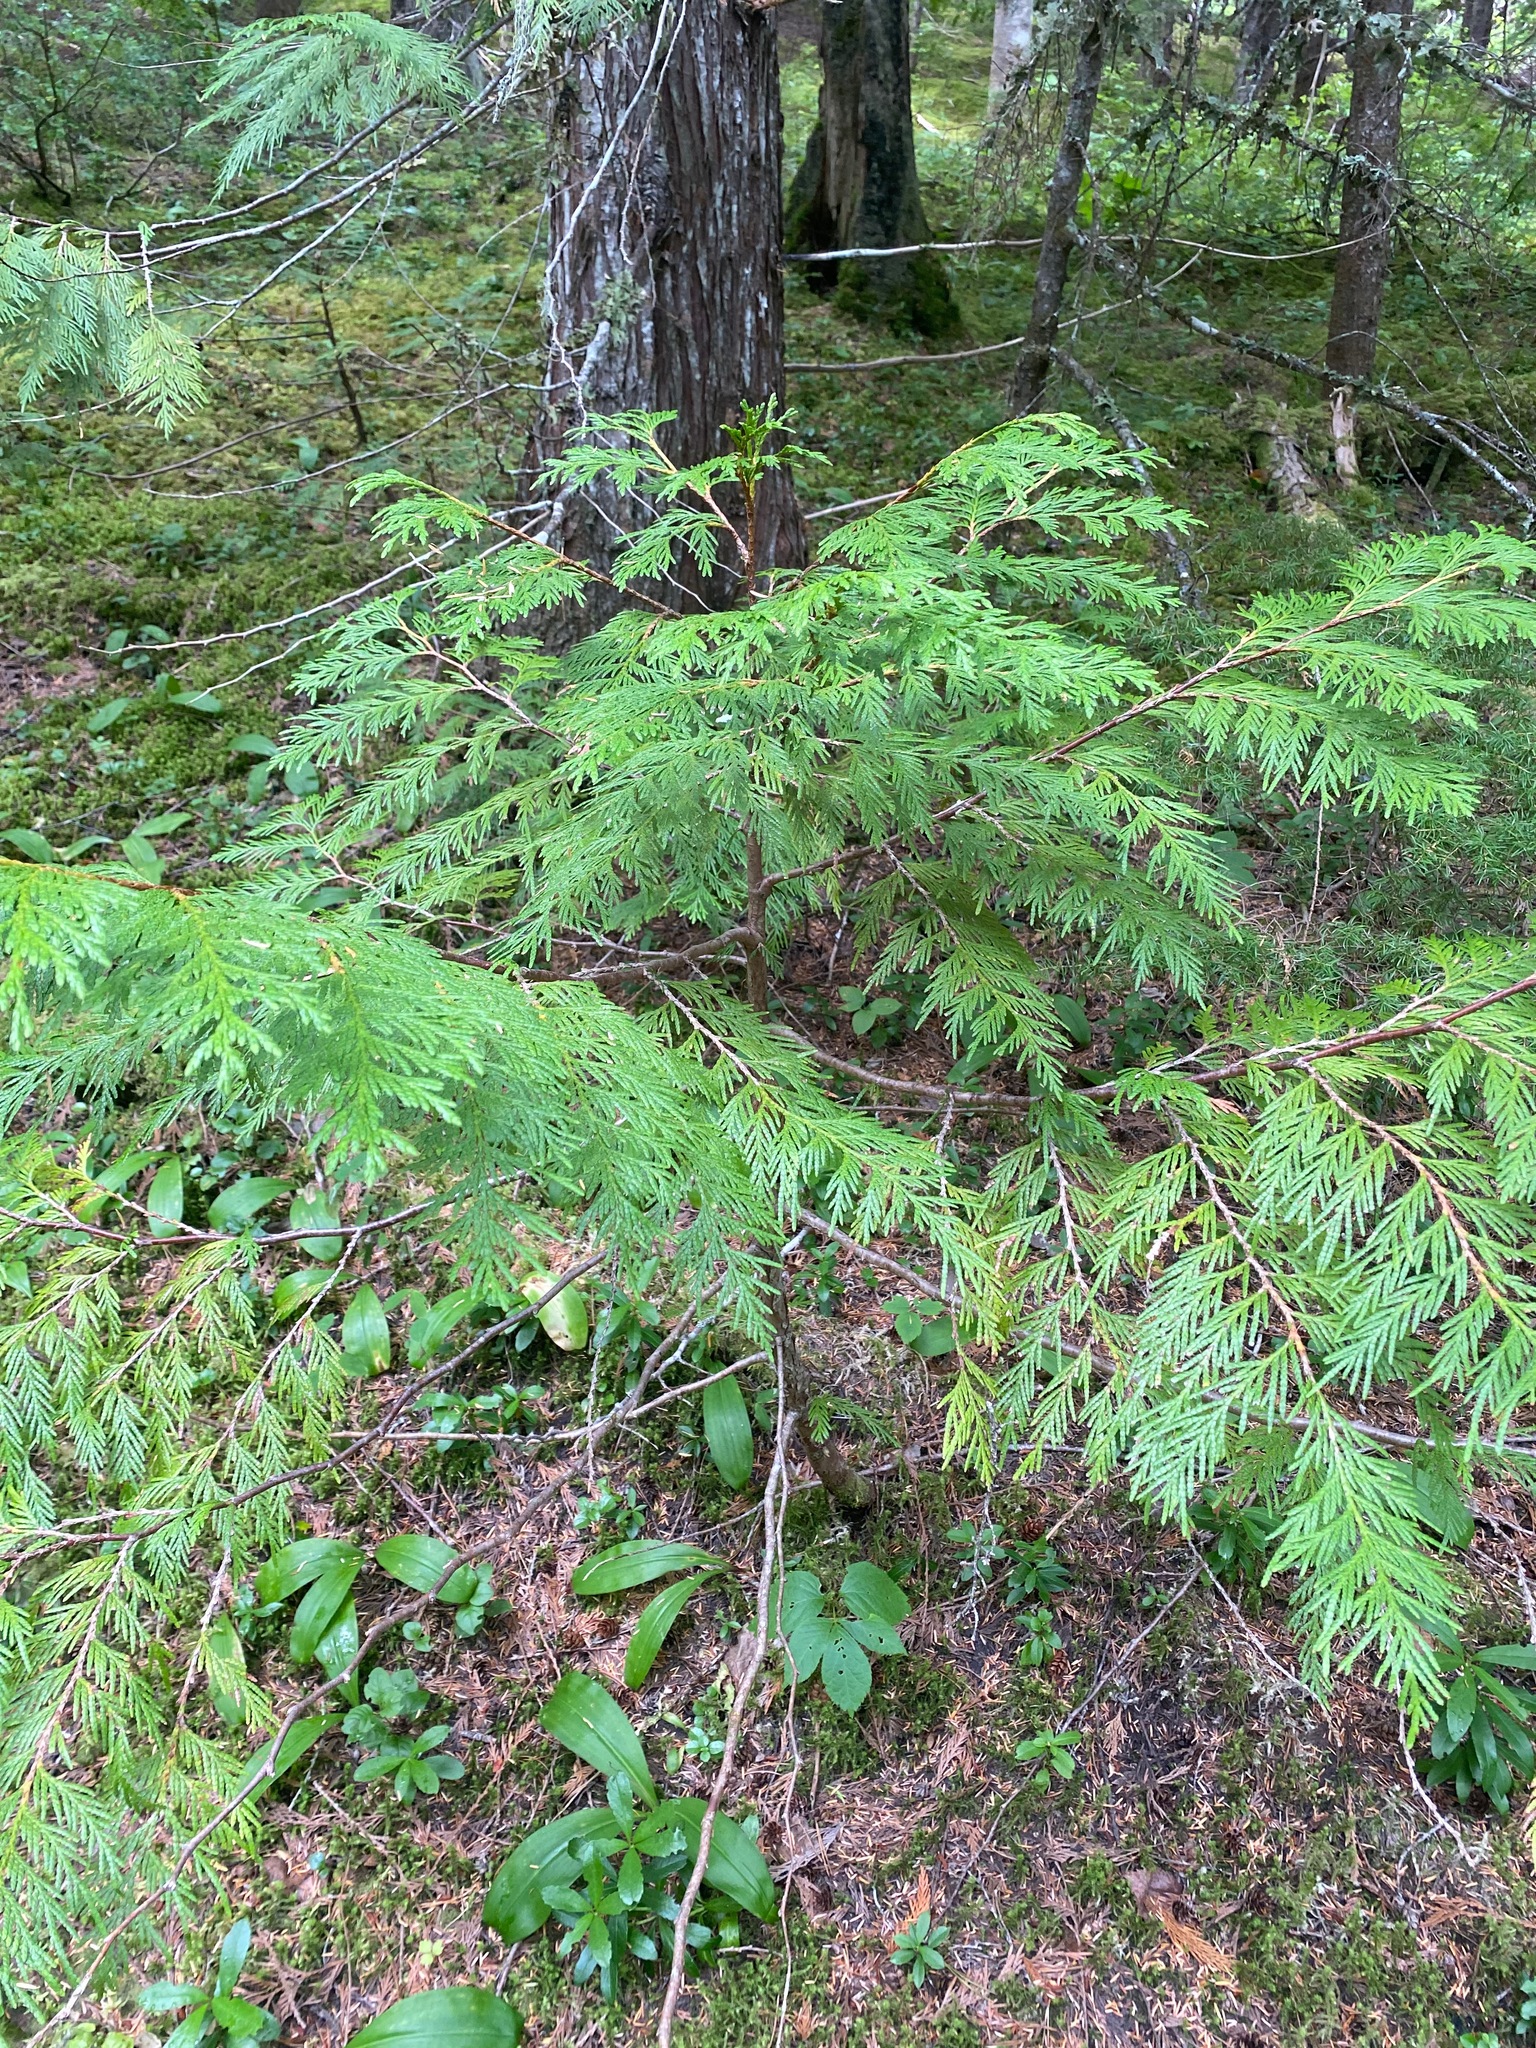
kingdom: Plantae
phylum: Tracheophyta
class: Pinopsida
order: Pinales
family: Cupressaceae
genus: Thuja
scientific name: Thuja plicata
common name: Western red-cedar
